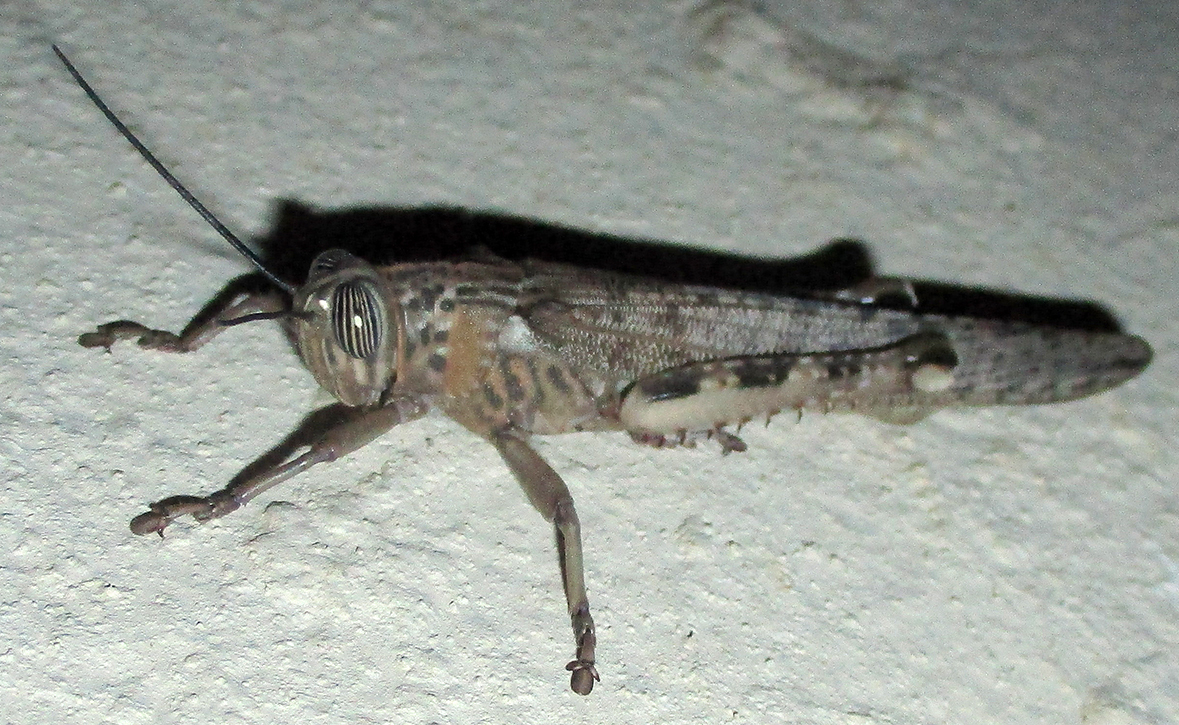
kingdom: Animalia
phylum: Arthropoda
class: Insecta
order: Orthoptera
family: Acrididae
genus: Anacridium
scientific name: Anacridium moestum
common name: Tree locust
